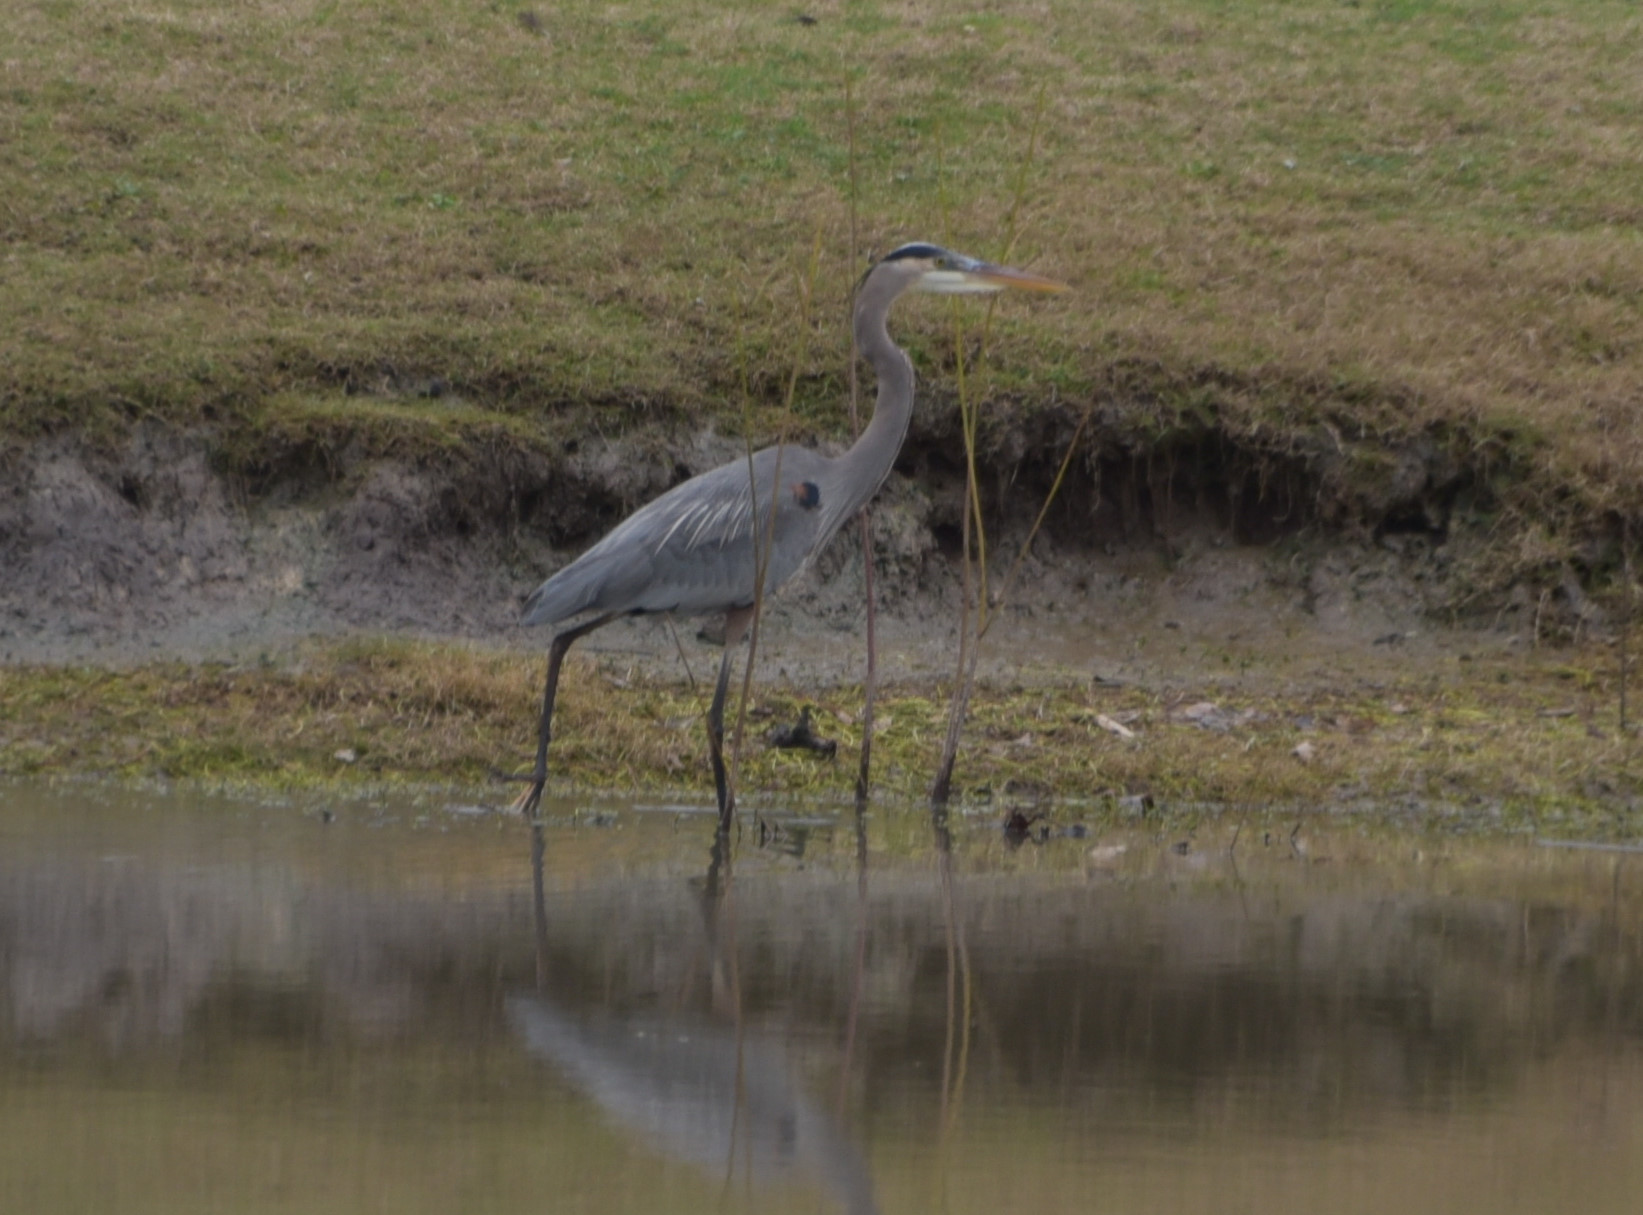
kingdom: Animalia
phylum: Chordata
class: Aves
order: Pelecaniformes
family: Ardeidae
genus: Ardea
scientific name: Ardea herodias
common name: Great blue heron
